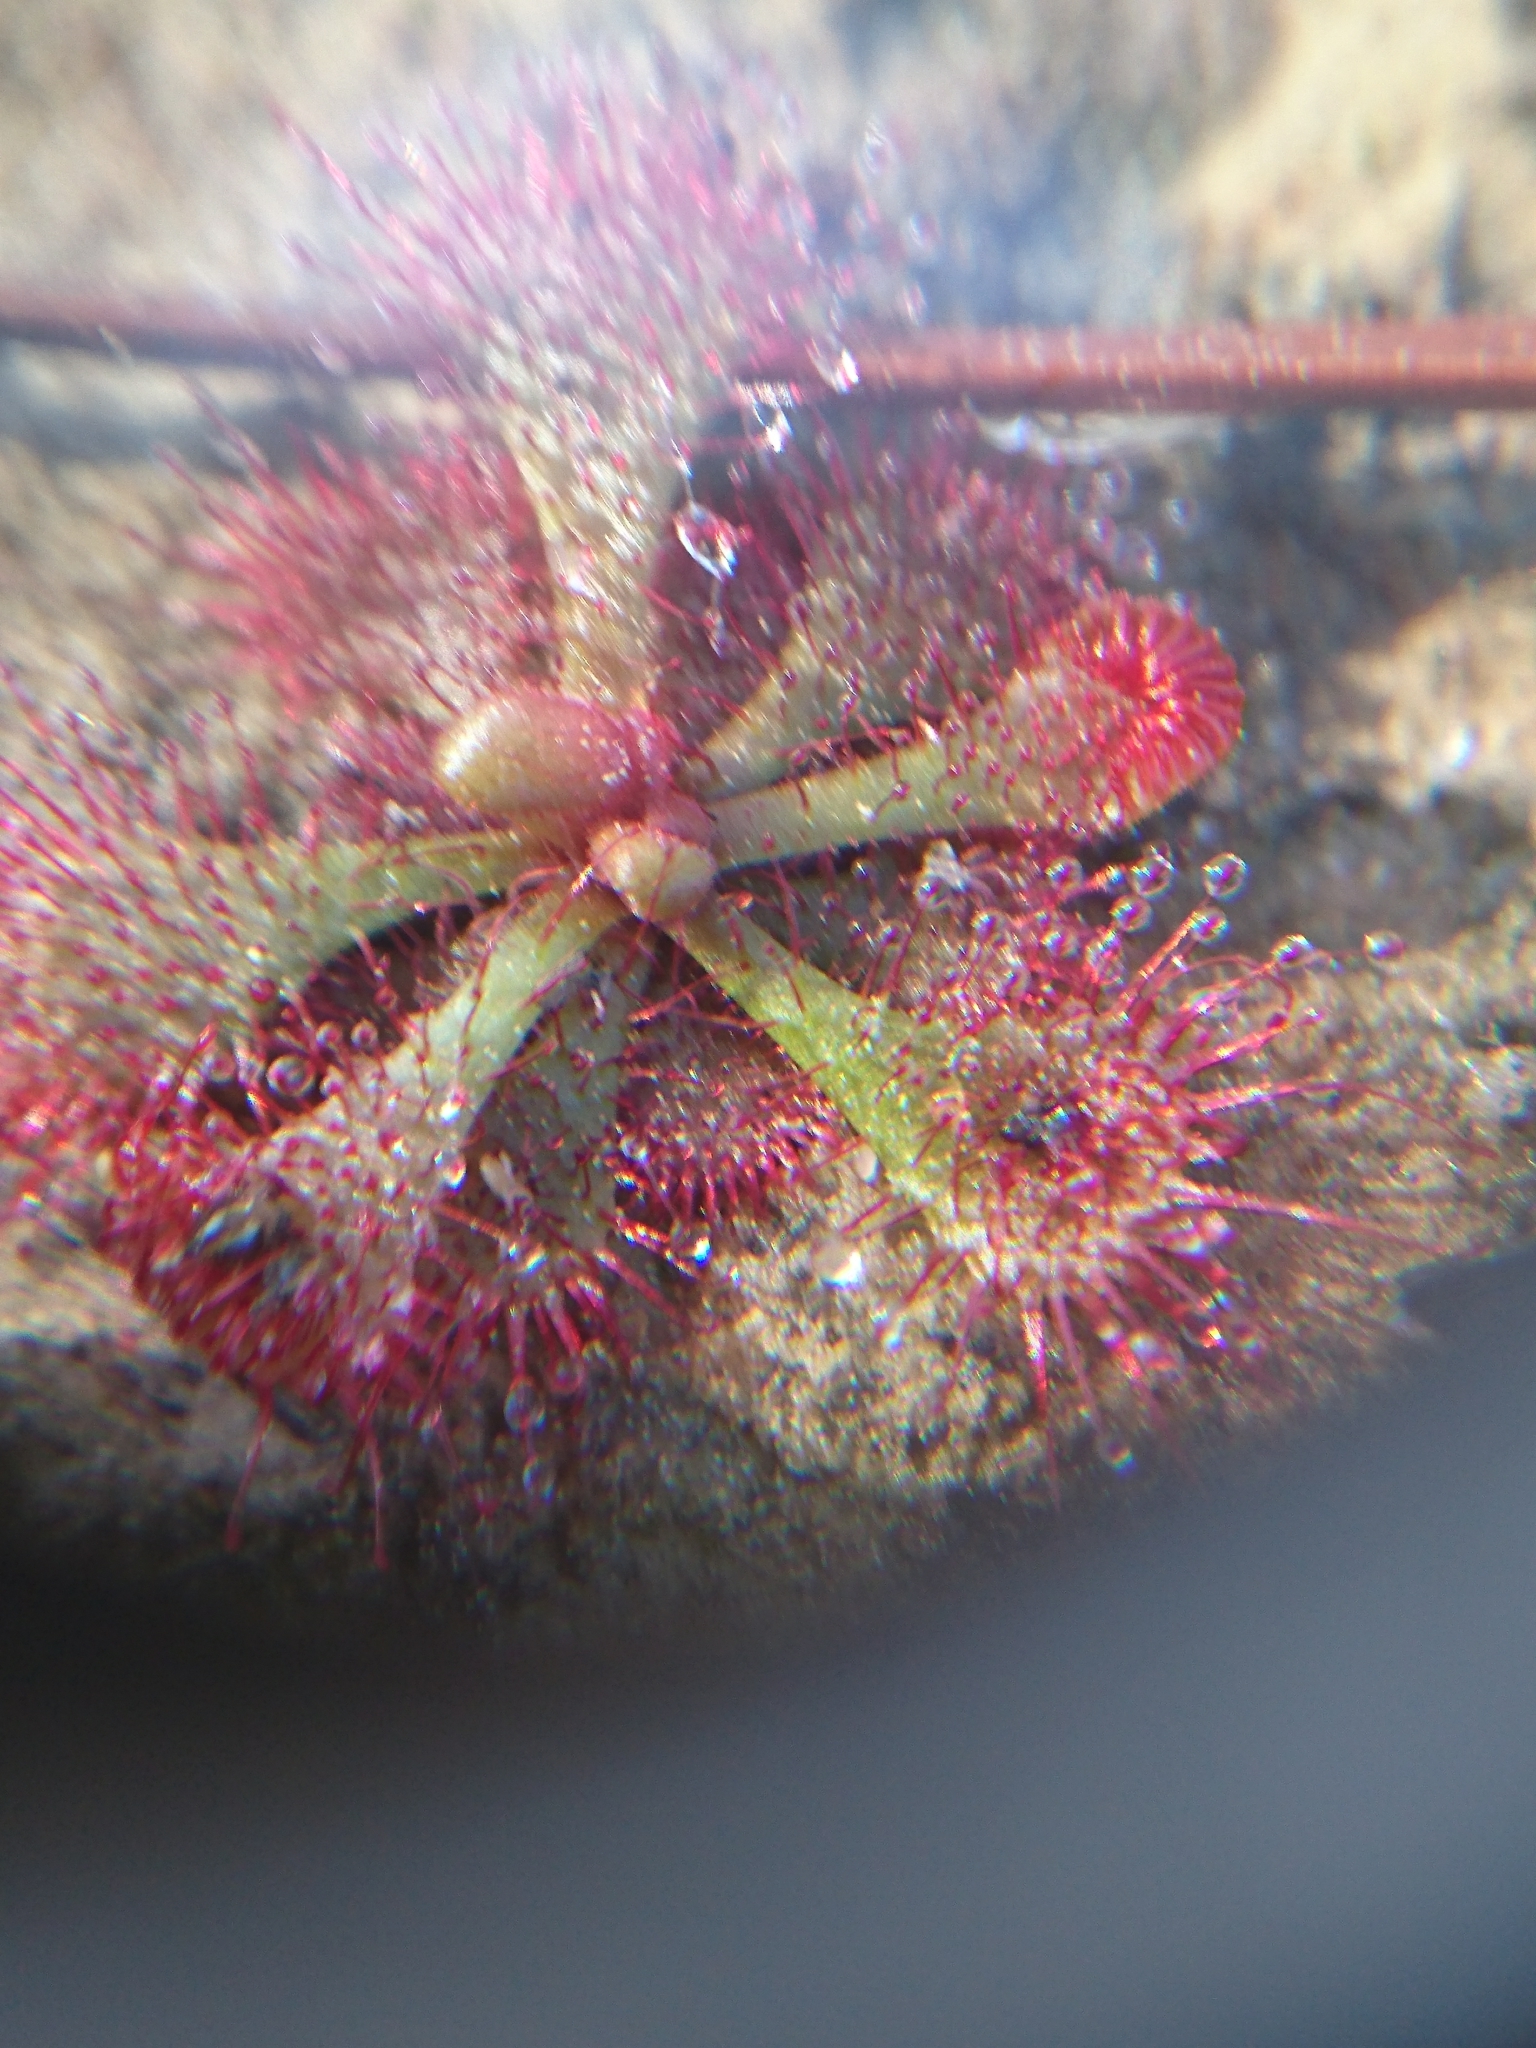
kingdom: Plantae
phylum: Tracheophyta
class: Magnoliopsida
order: Caryophyllales
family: Droseraceae
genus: Drosera
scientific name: Drosera brevifolia
